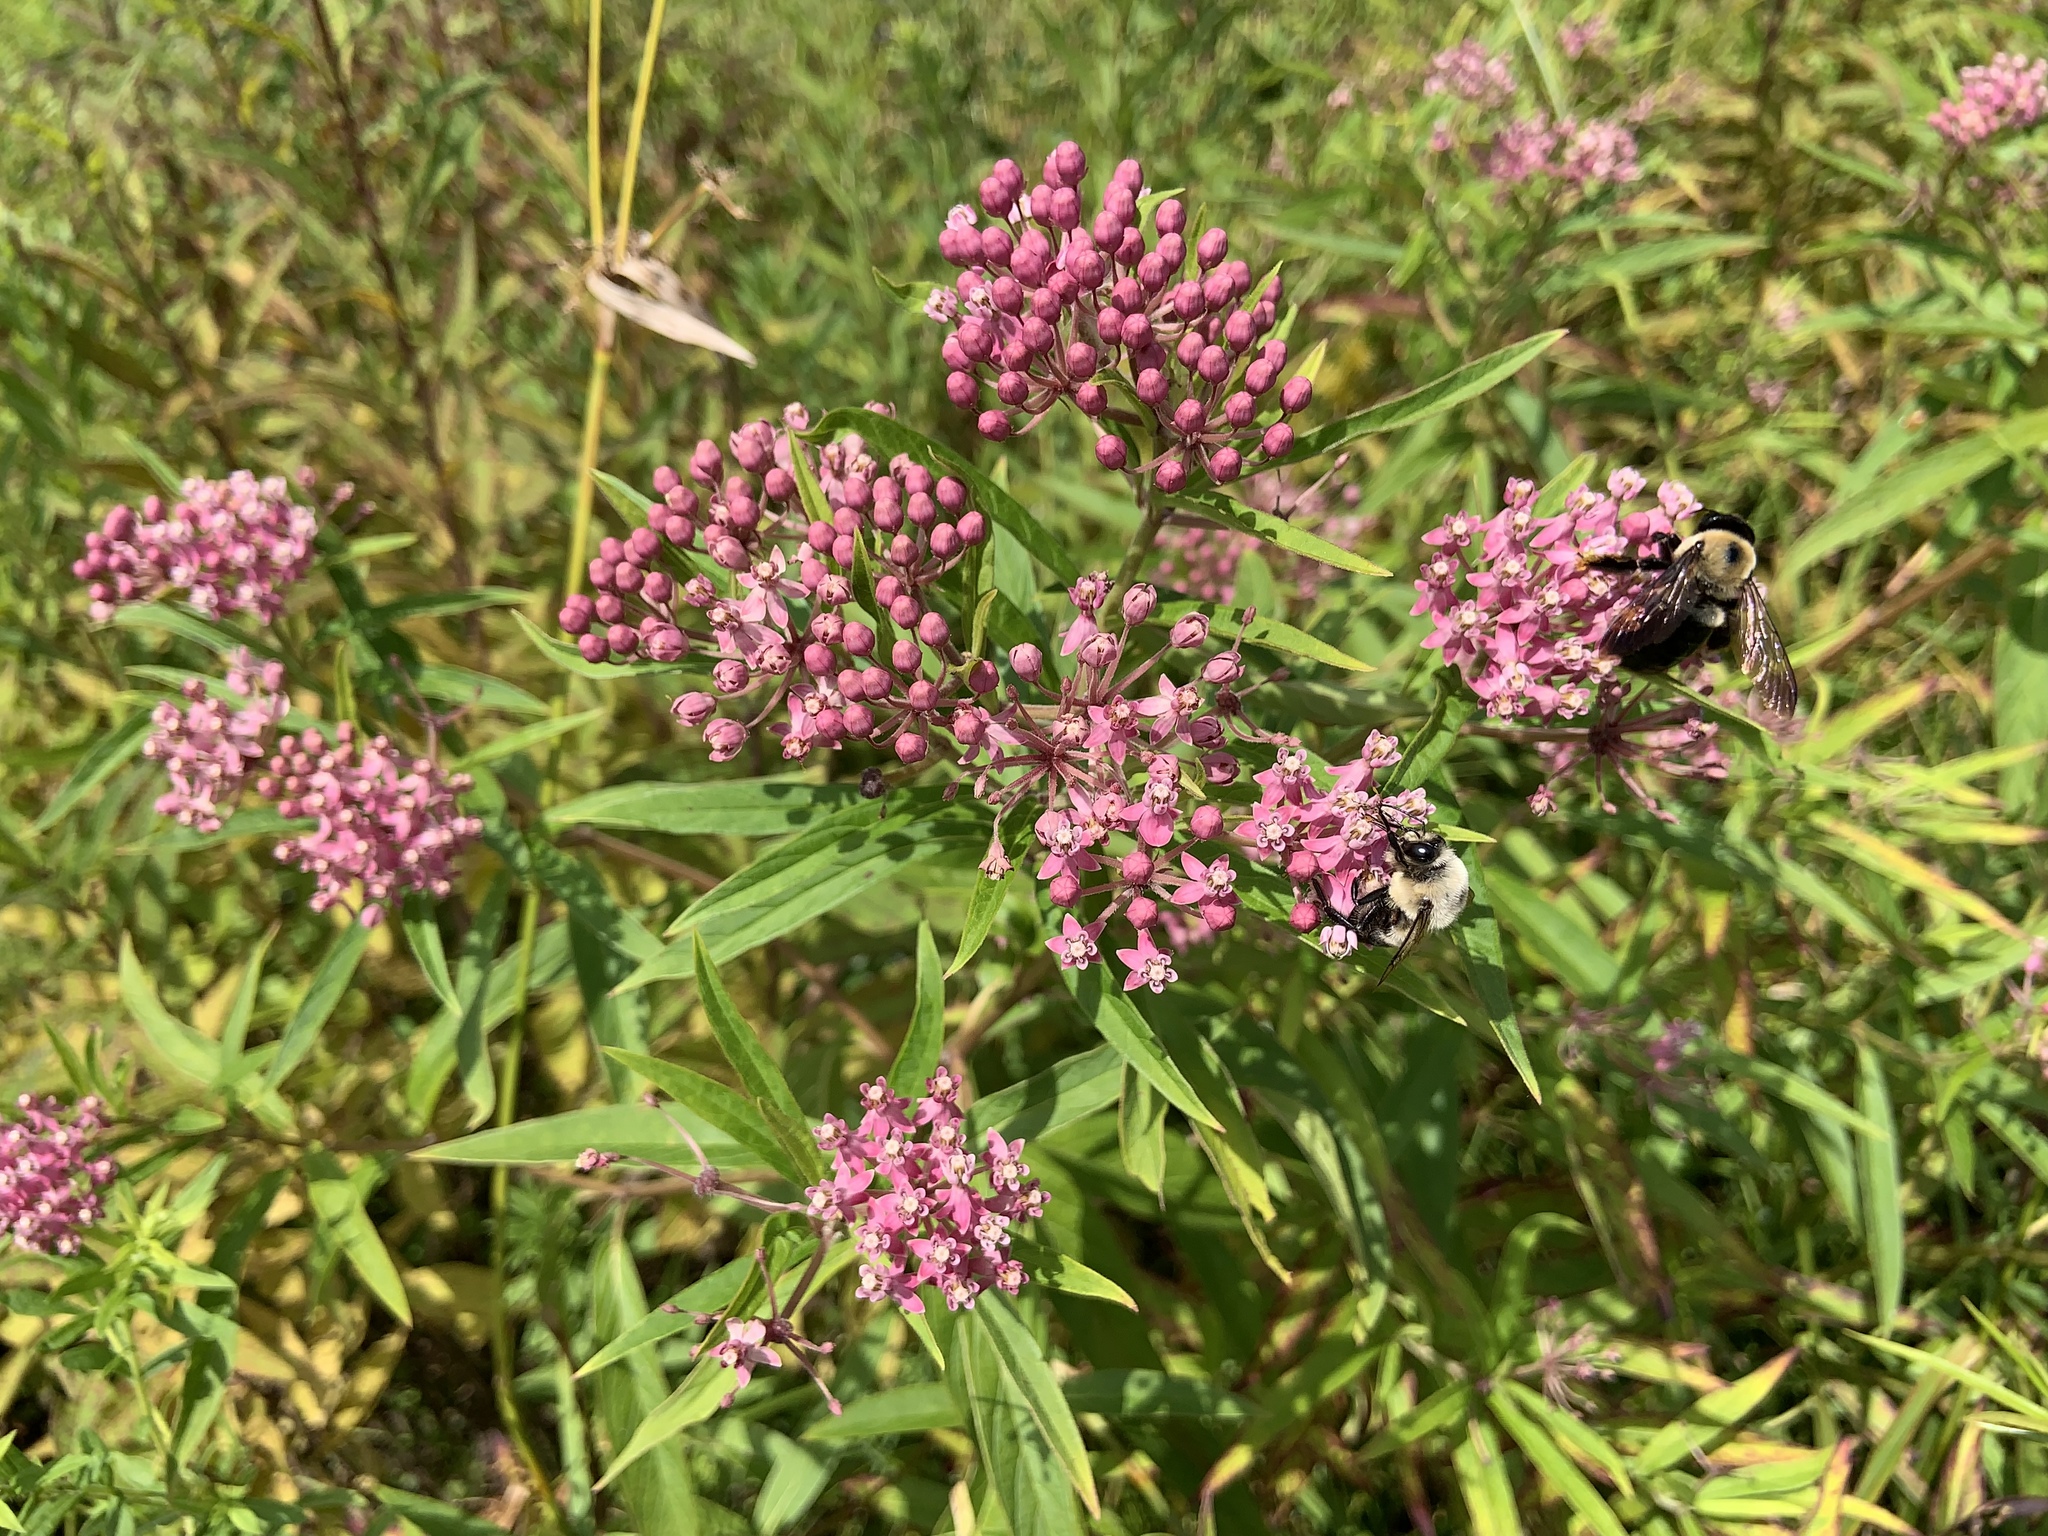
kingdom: Plantae
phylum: Tracheophyta
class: Magnoliopsida
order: Gentianales
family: Apocynaceae
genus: Asclepias
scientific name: Asclepias incarnata
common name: Swamp milkweed
